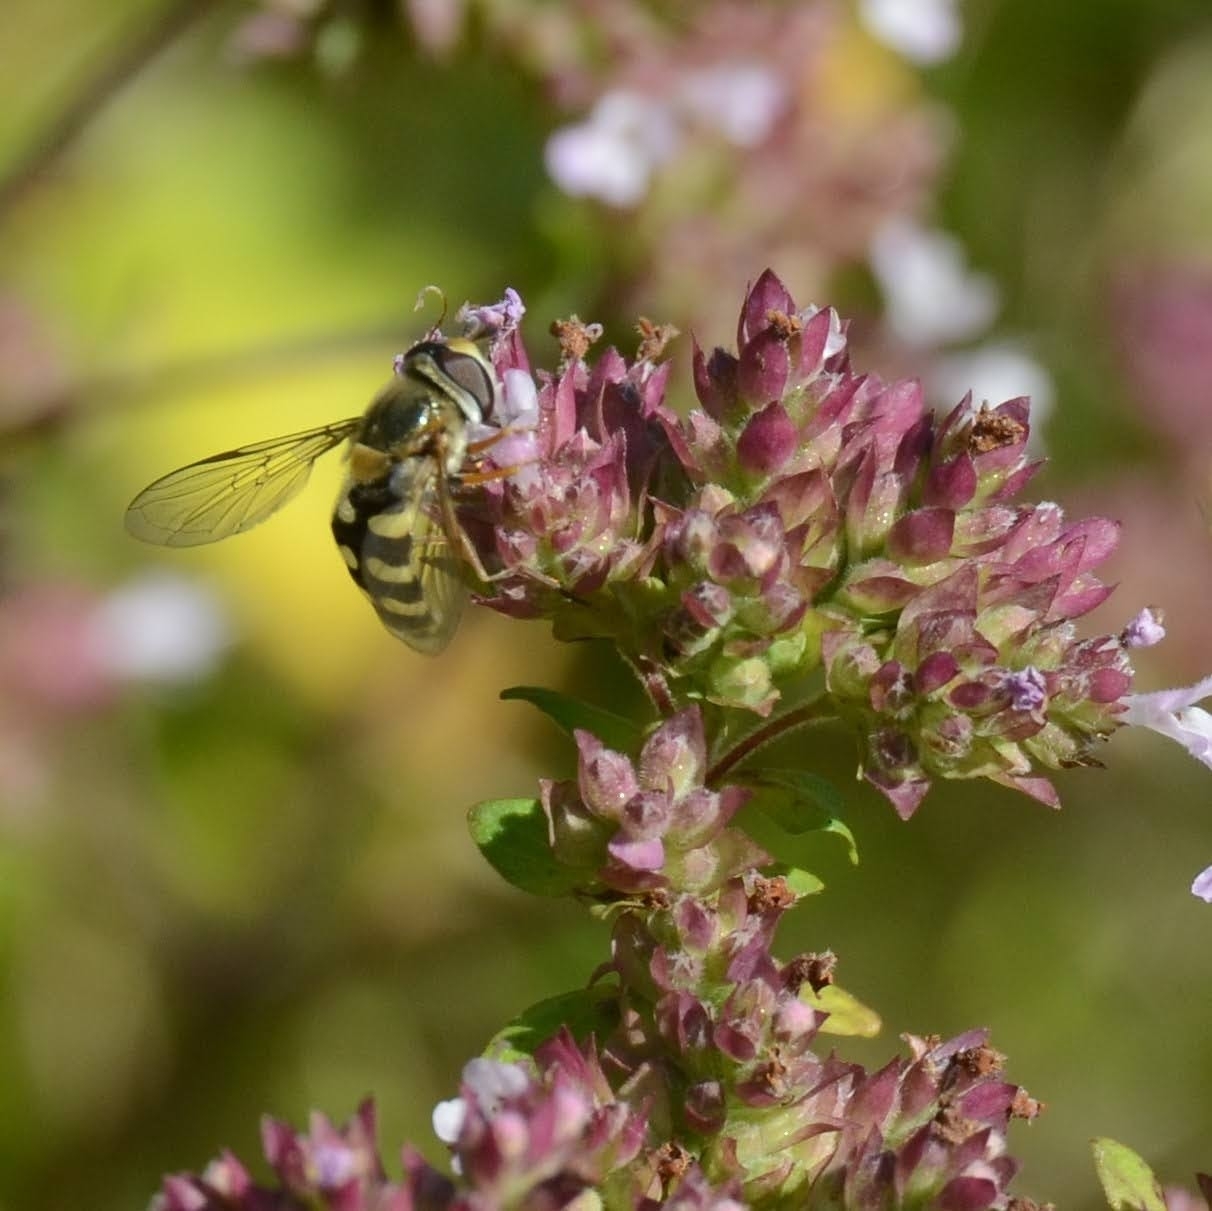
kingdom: Animalia
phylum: Arthropoda
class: Insecta
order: Diptera
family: Syrphidae
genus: Eupeodes
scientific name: Eupeodes corollae
